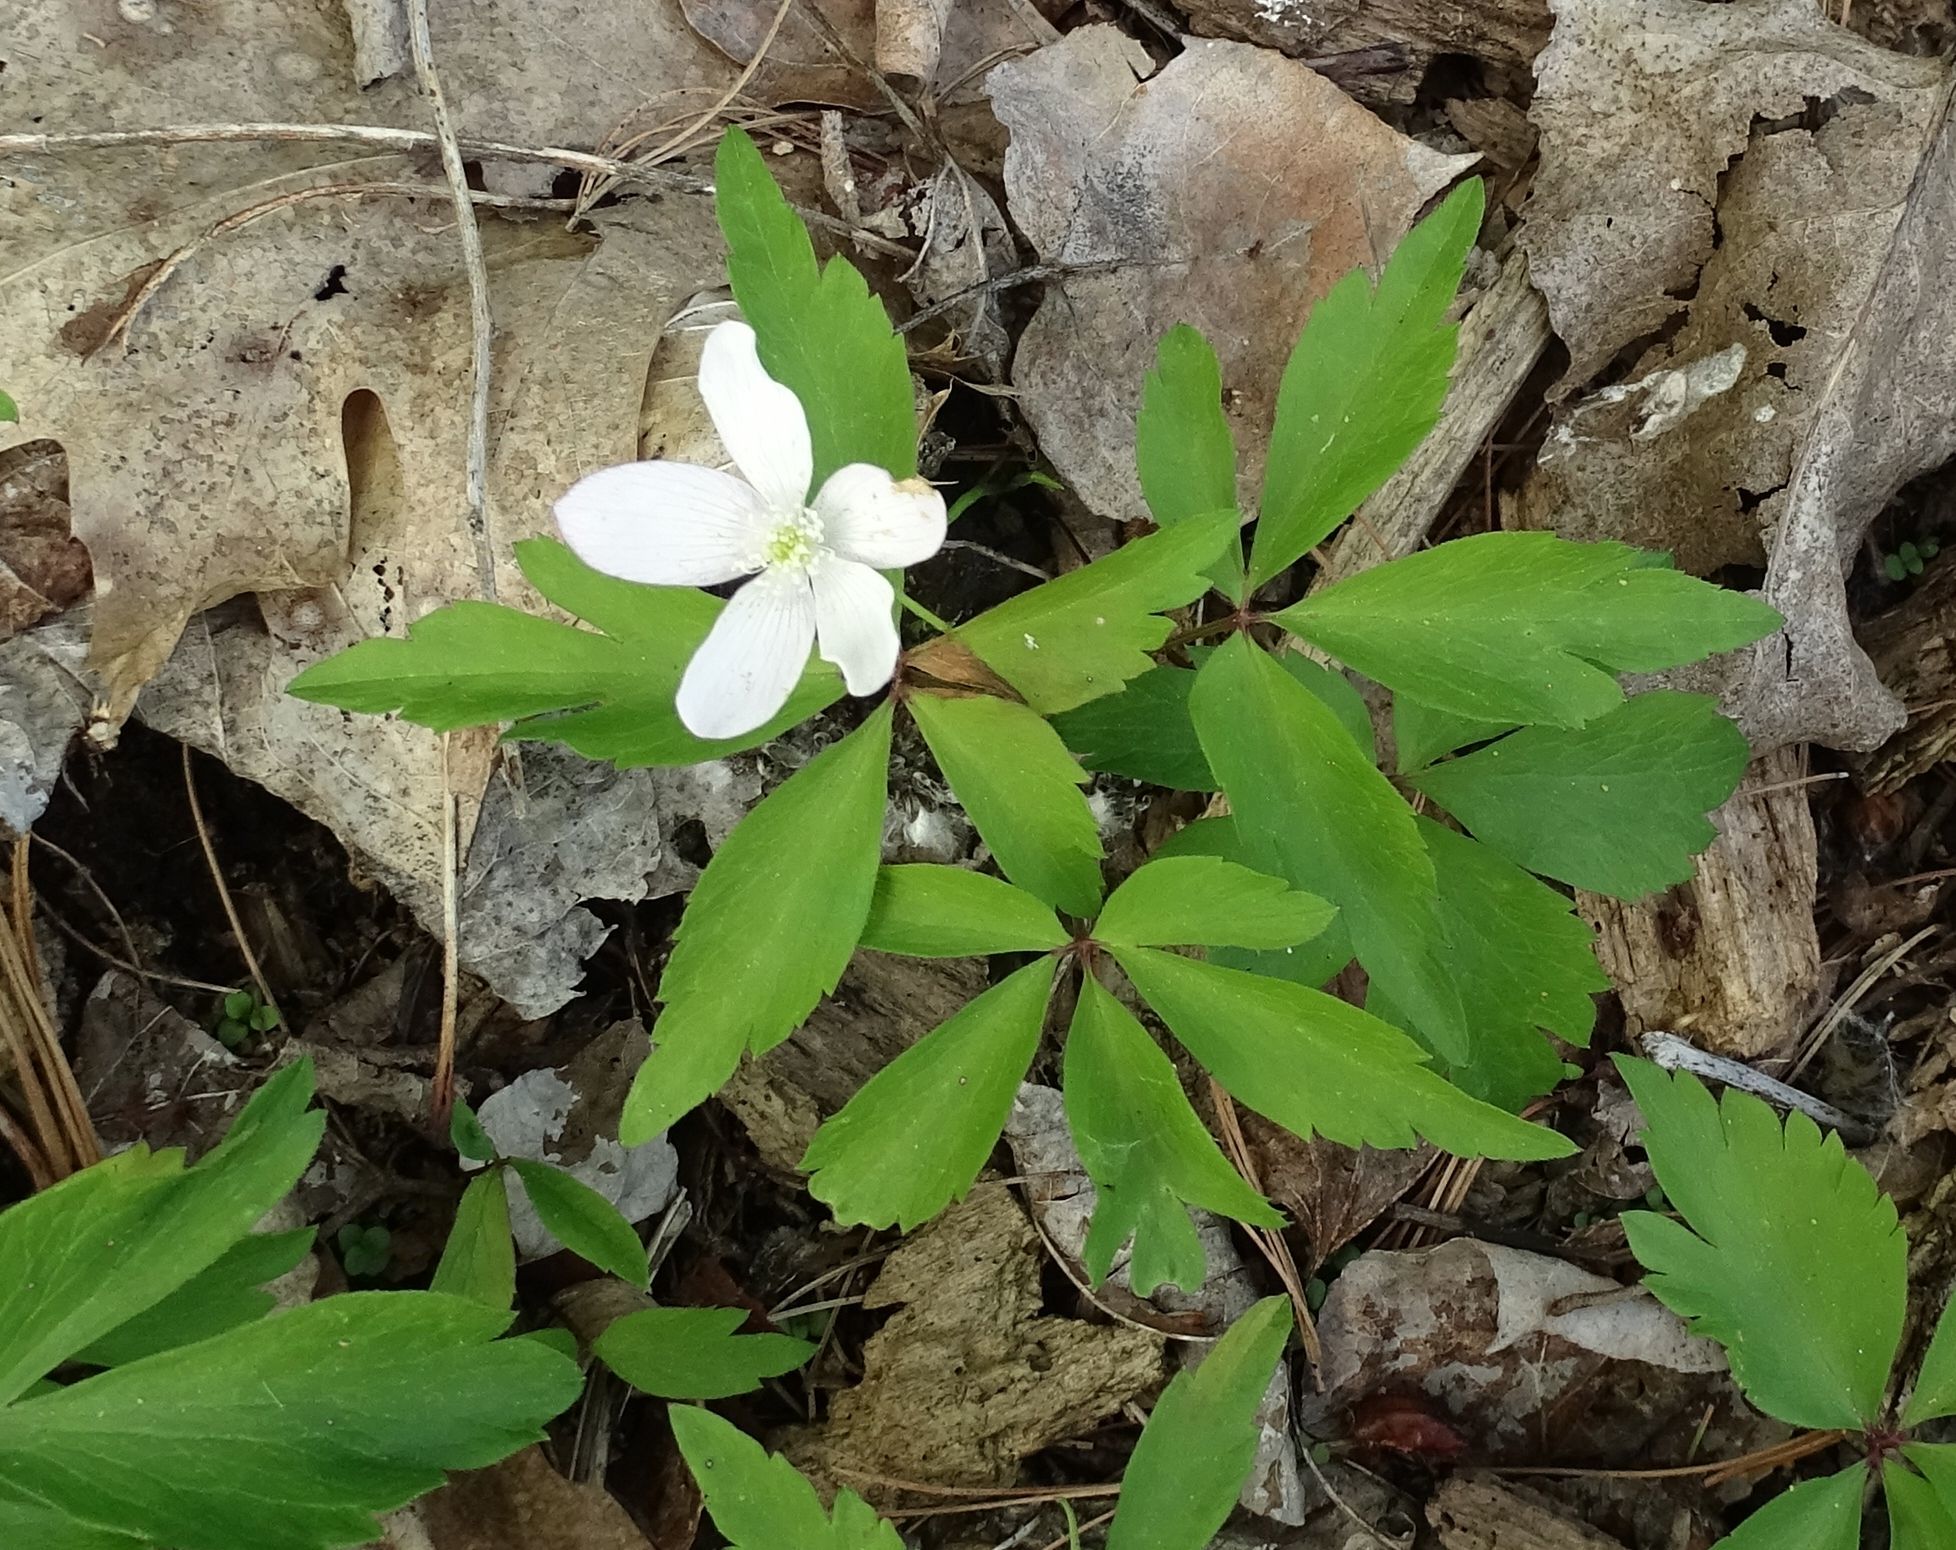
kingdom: Plantae
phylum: Tracheophyta
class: Magnoliopsida
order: Ranunculales
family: Ranunculaceae
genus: Anemone
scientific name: Anemone quinquefolia
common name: Wood anemone
